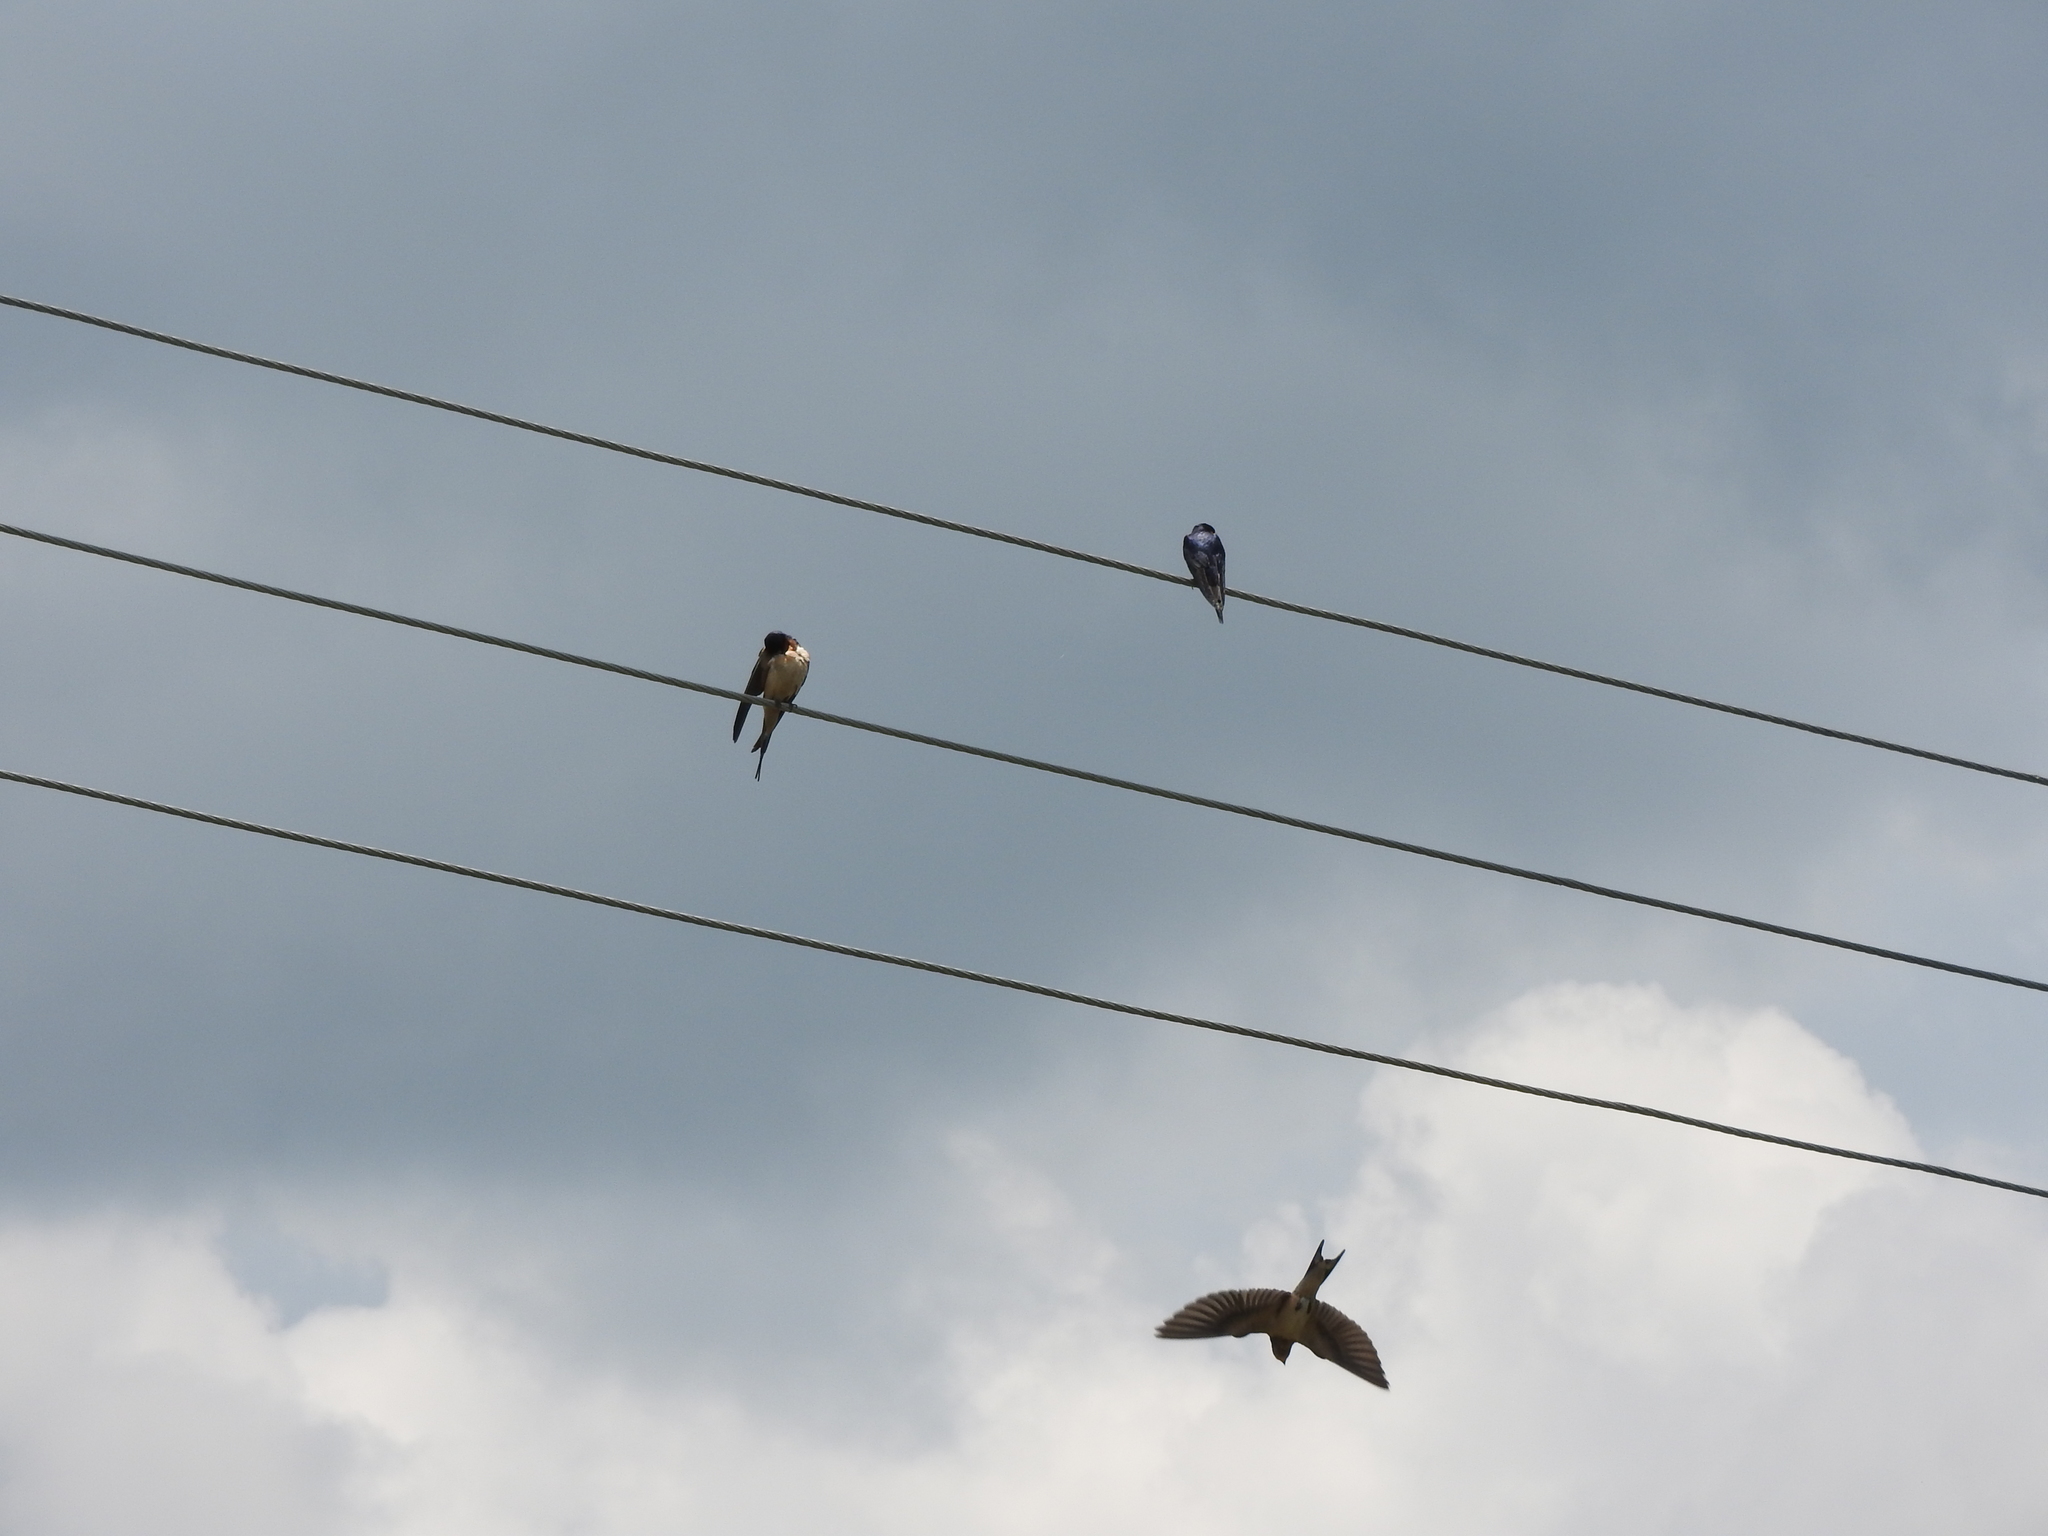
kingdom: Animalia
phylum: Chordata
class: Aves
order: Passeriformes
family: Hirundinidae
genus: Hirundo
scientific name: Hirundo rustica
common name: Barn swallow
